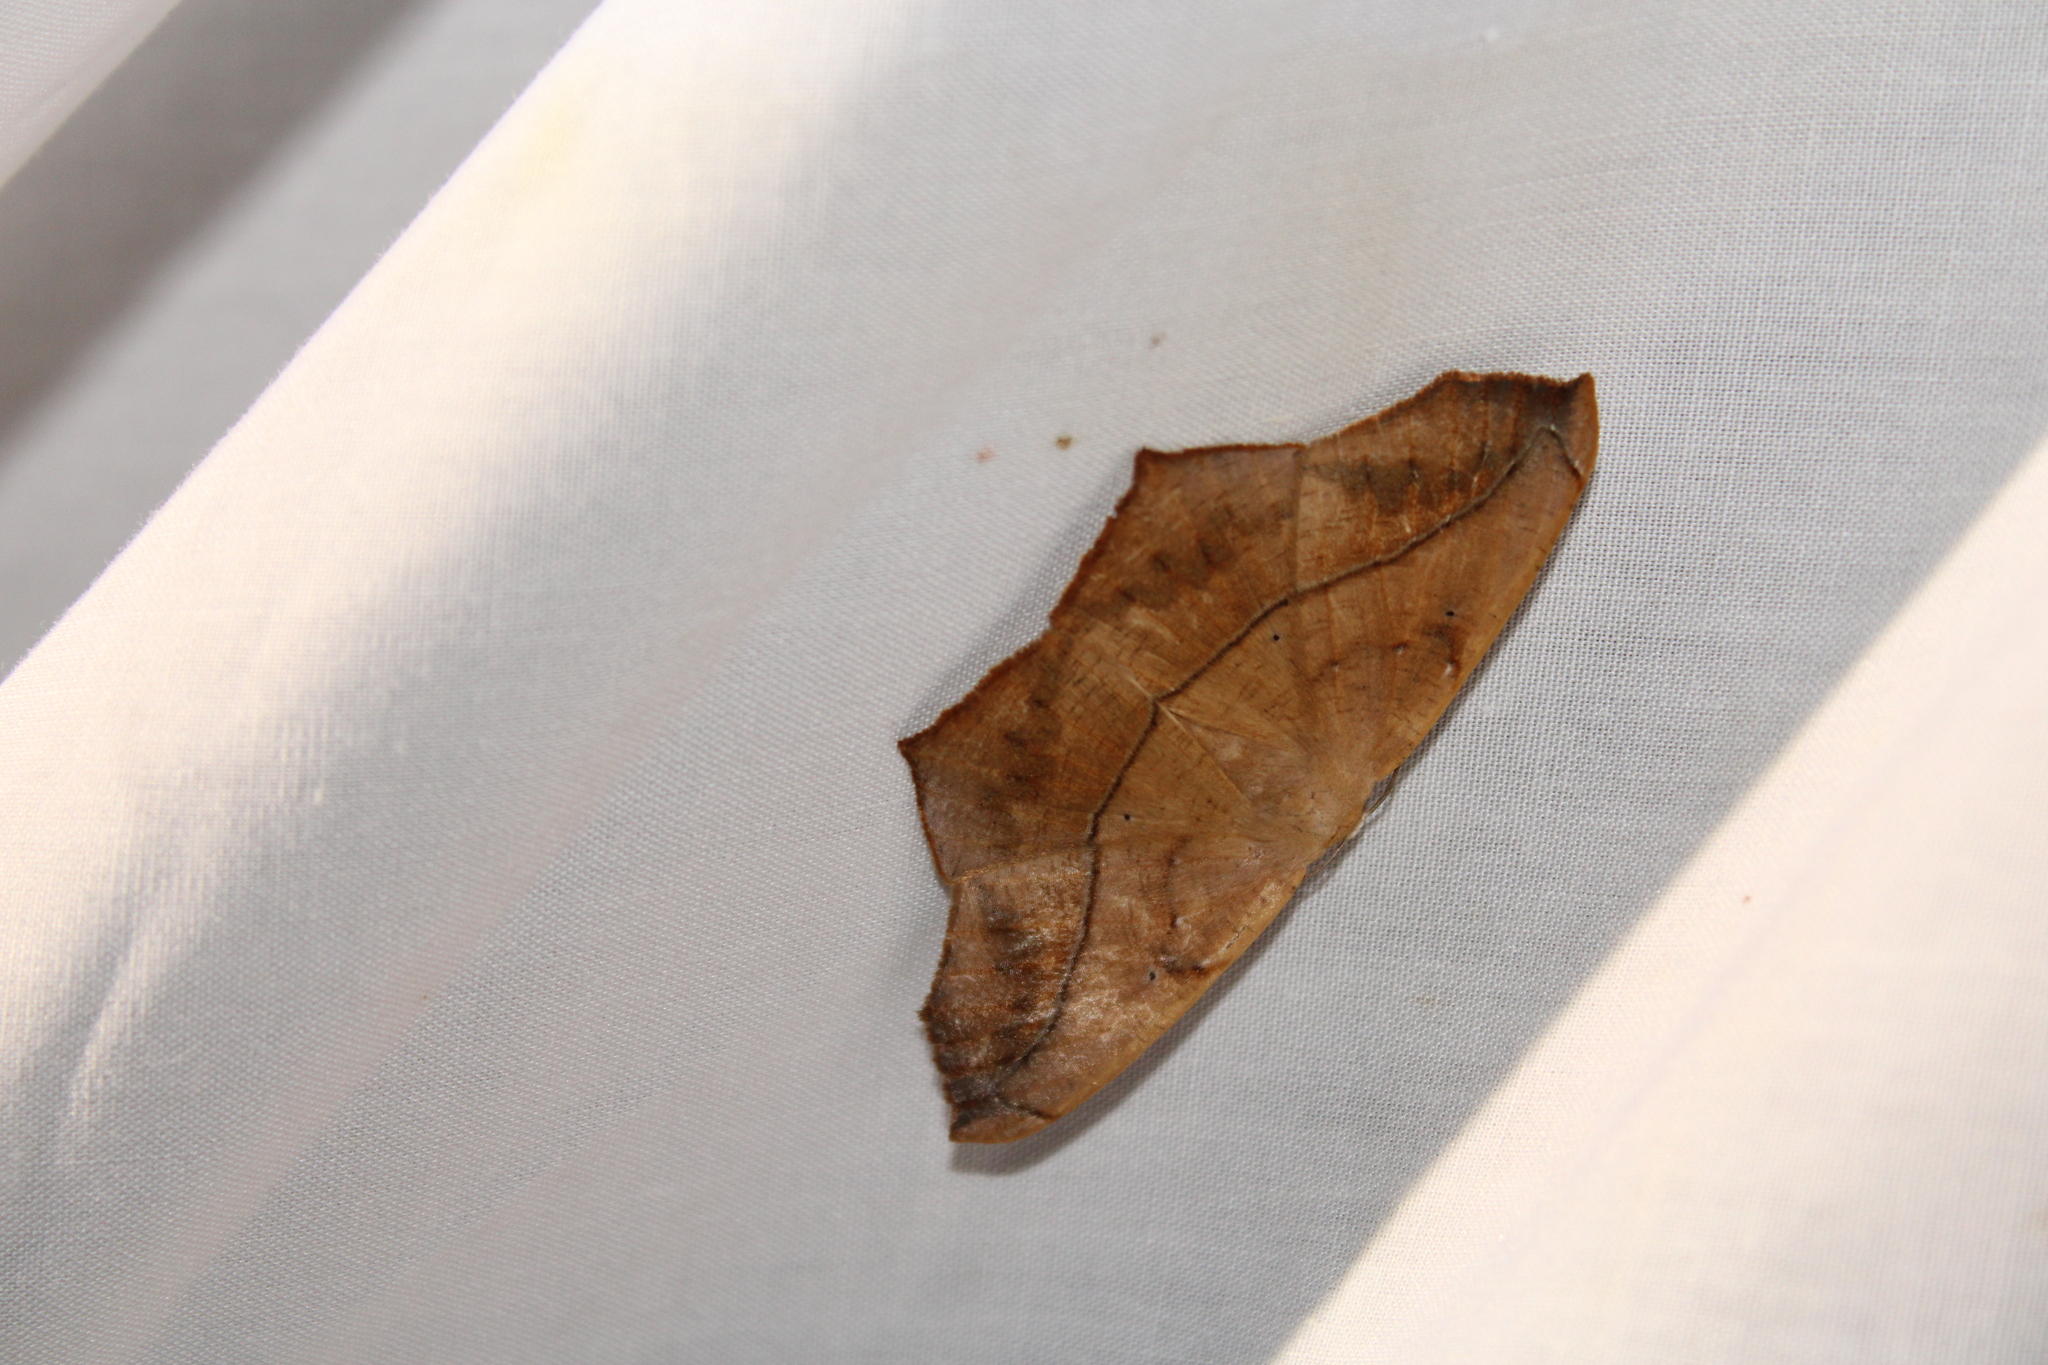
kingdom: Animalia
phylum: Arthropoda
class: Insecta
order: Lepidoptera
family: Geometridae
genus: Prochoerodes
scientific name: Prochoerodes lineola
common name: Large maple spanworm
